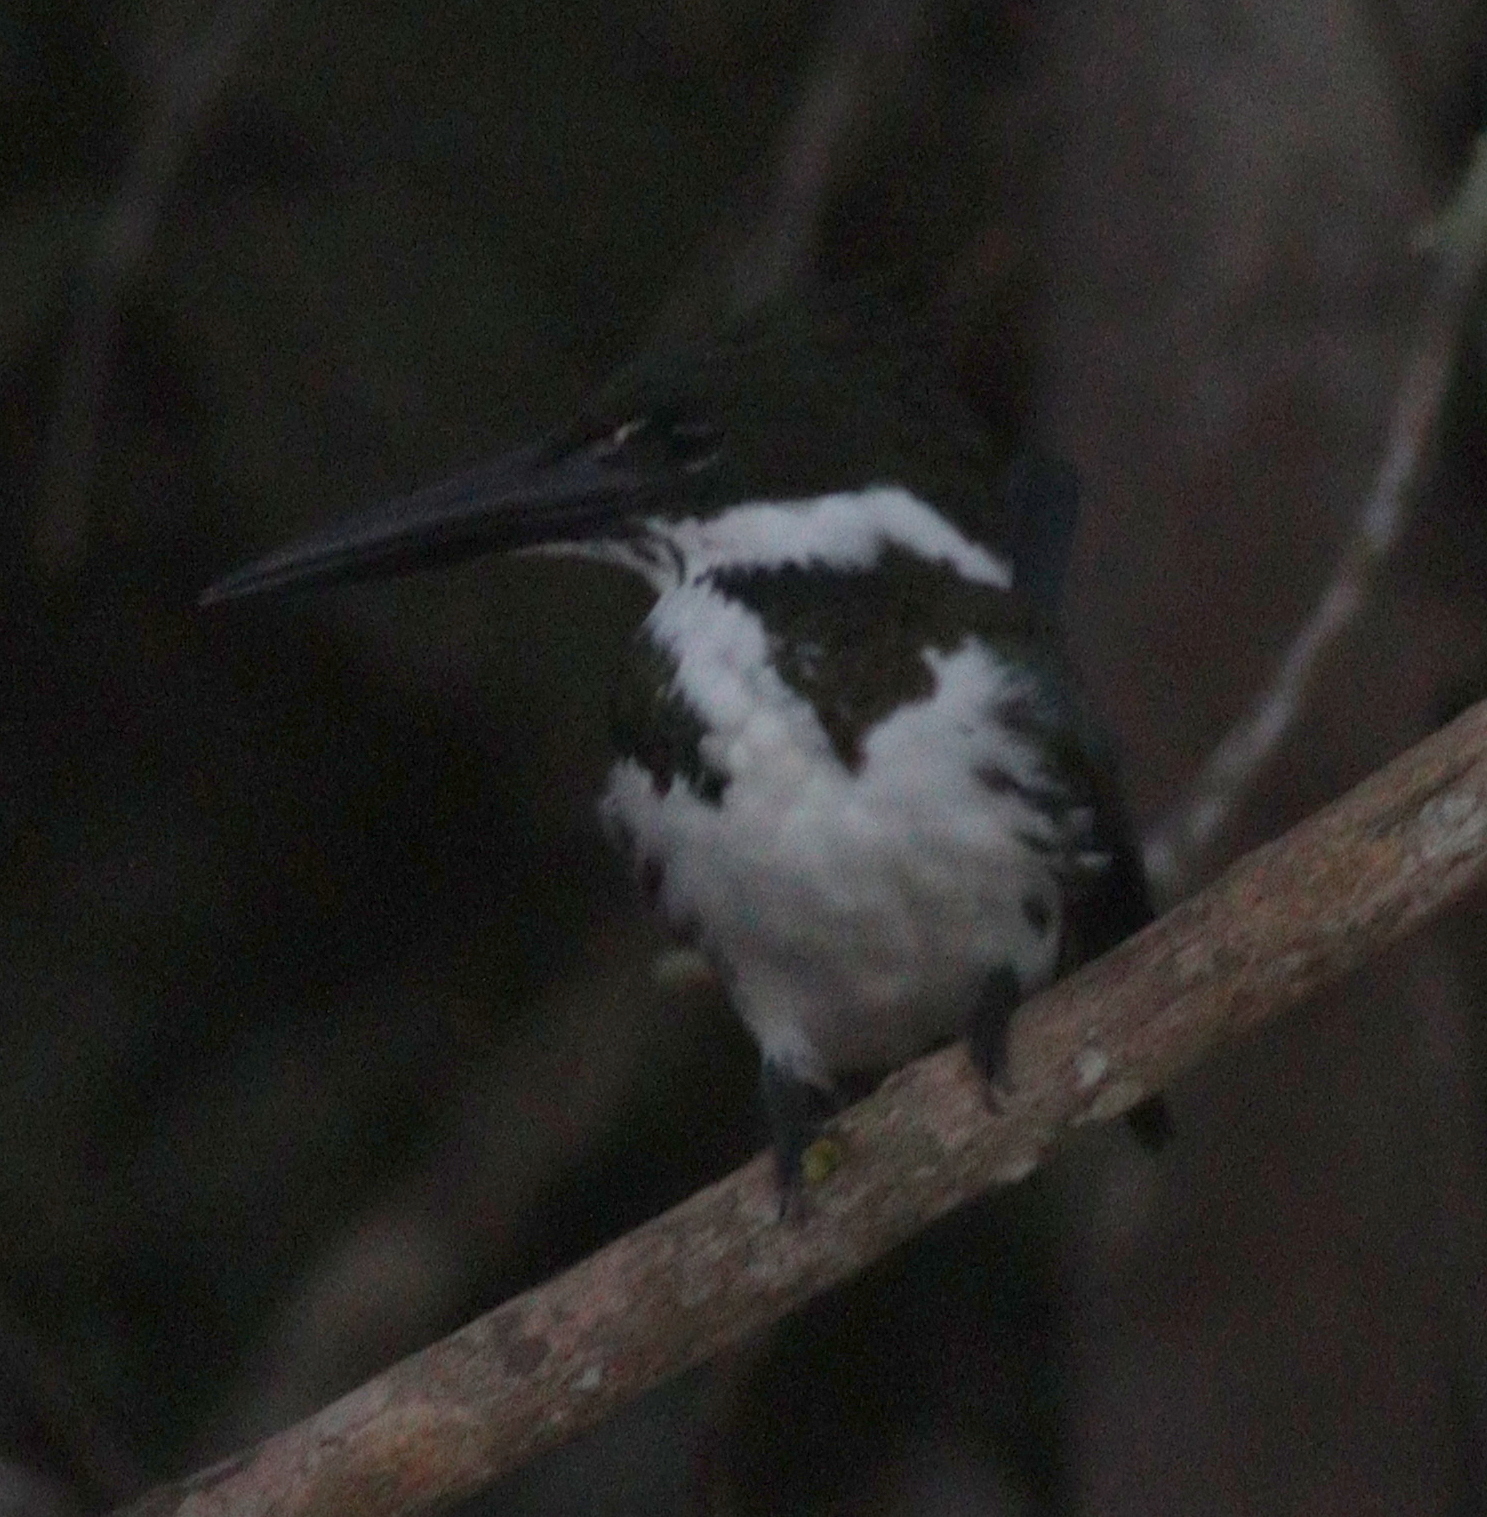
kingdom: Animalia
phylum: Chordata
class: Aves
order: Coraciiformes
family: Alcedinidae
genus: Chloroceryle
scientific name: Chloroceryle amazona
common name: Amazon kingfisher
